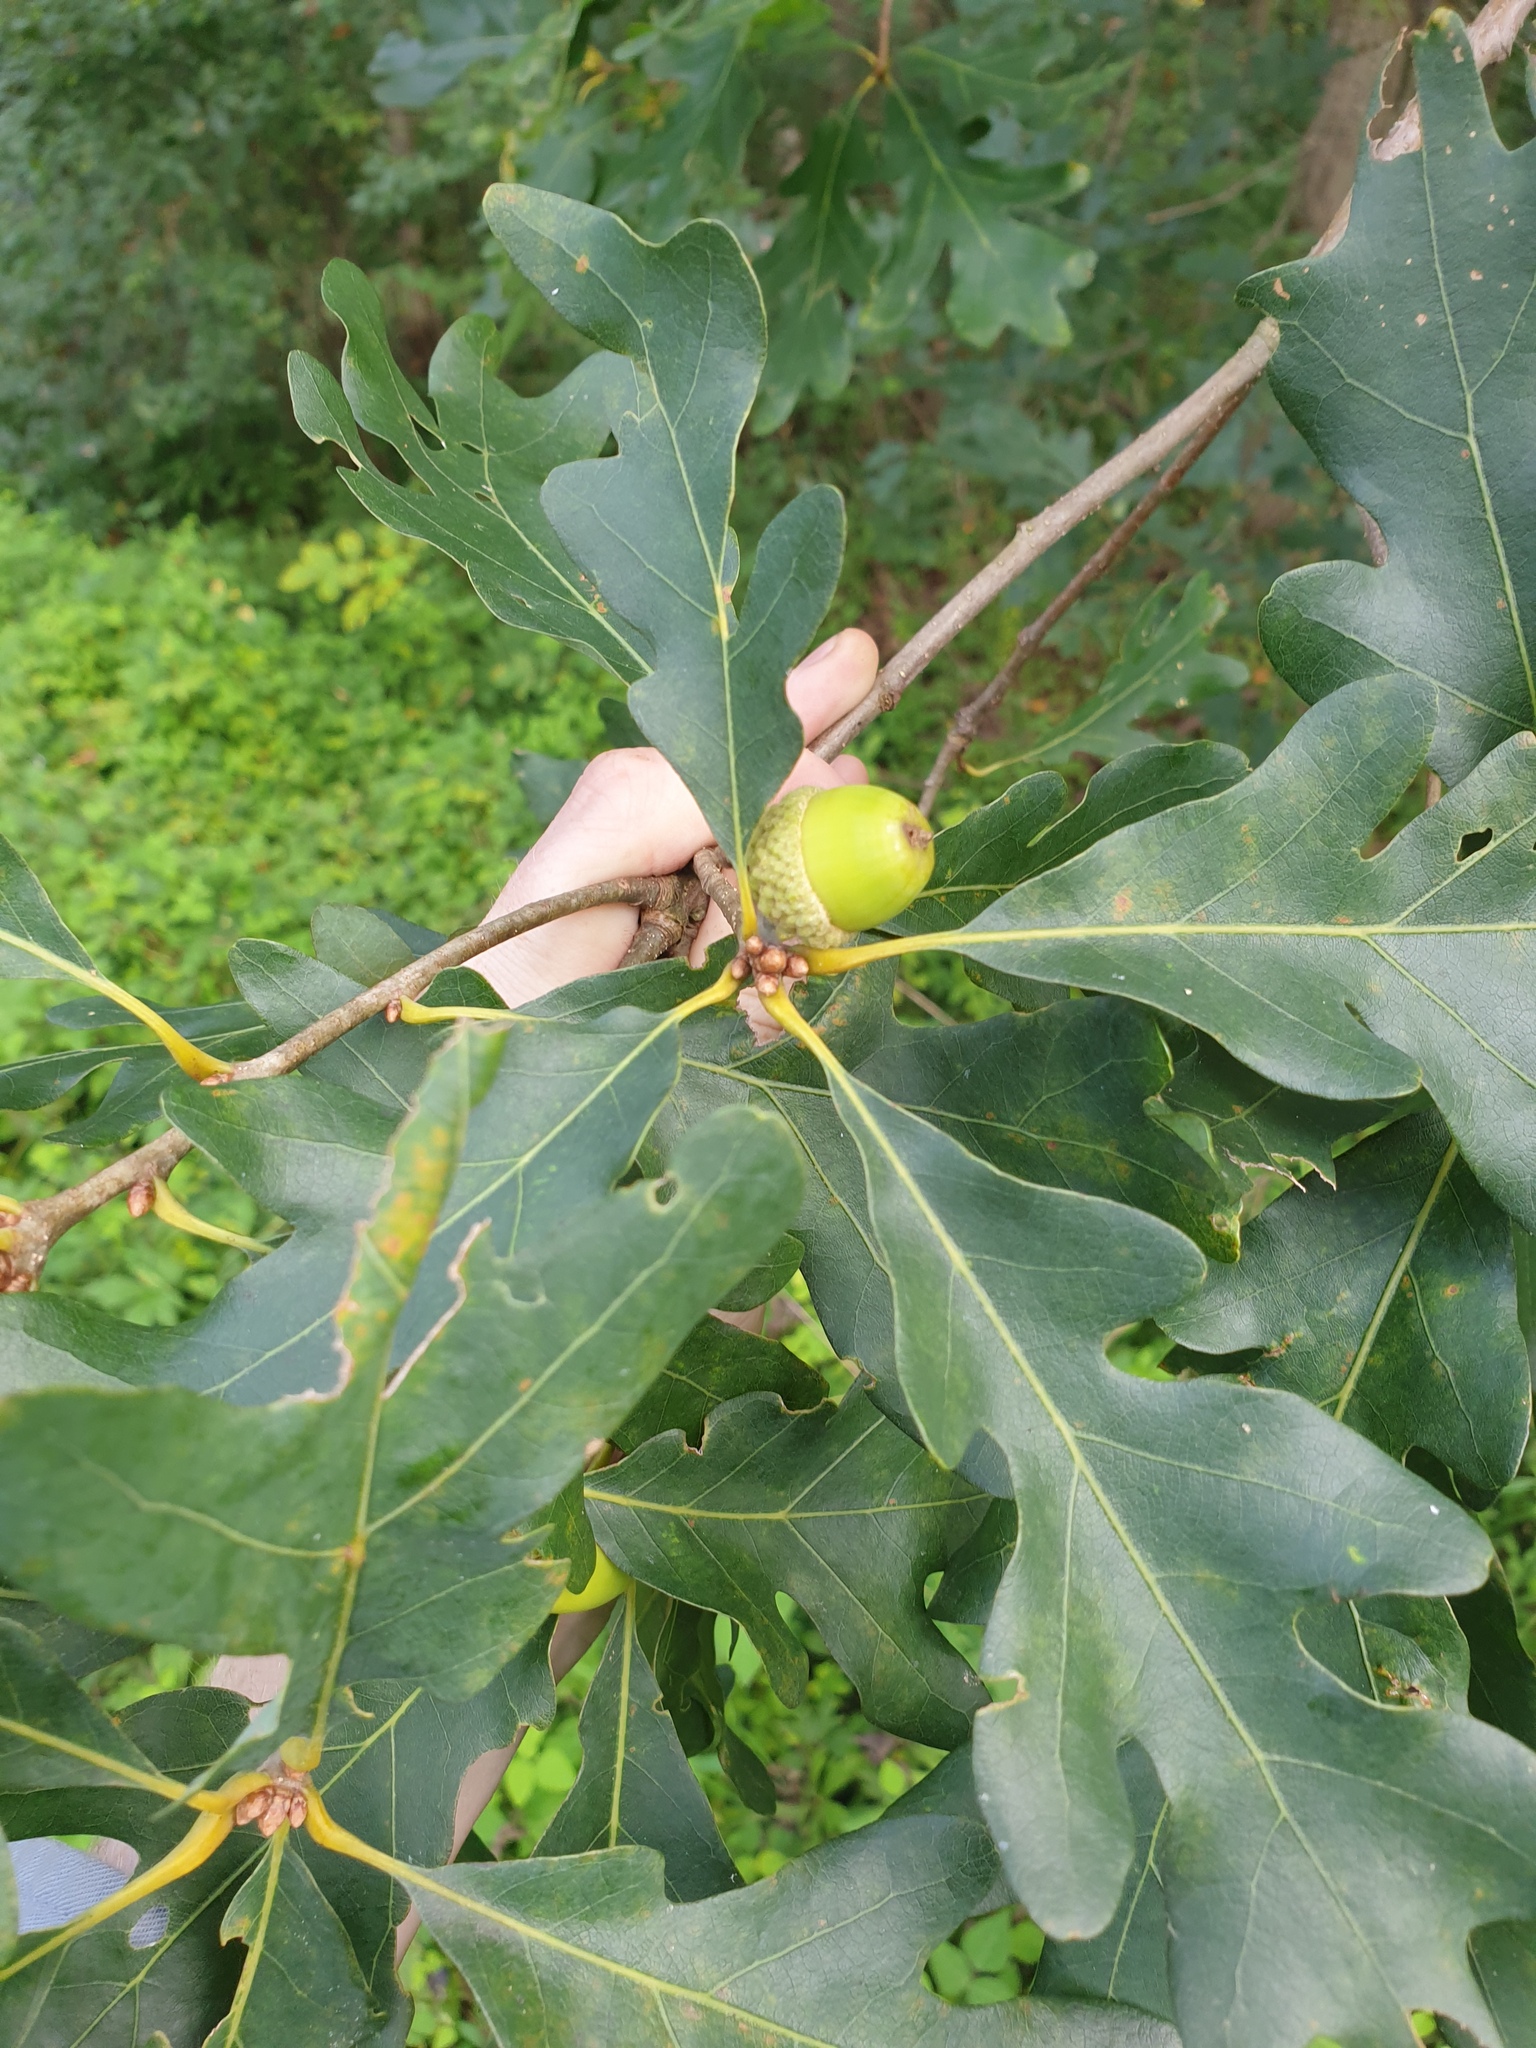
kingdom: Plantae
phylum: Tracheophyta
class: Magnoliopsida
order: Fagales
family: Fagaceae
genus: Quercus
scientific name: Quercus alba
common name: White oak
